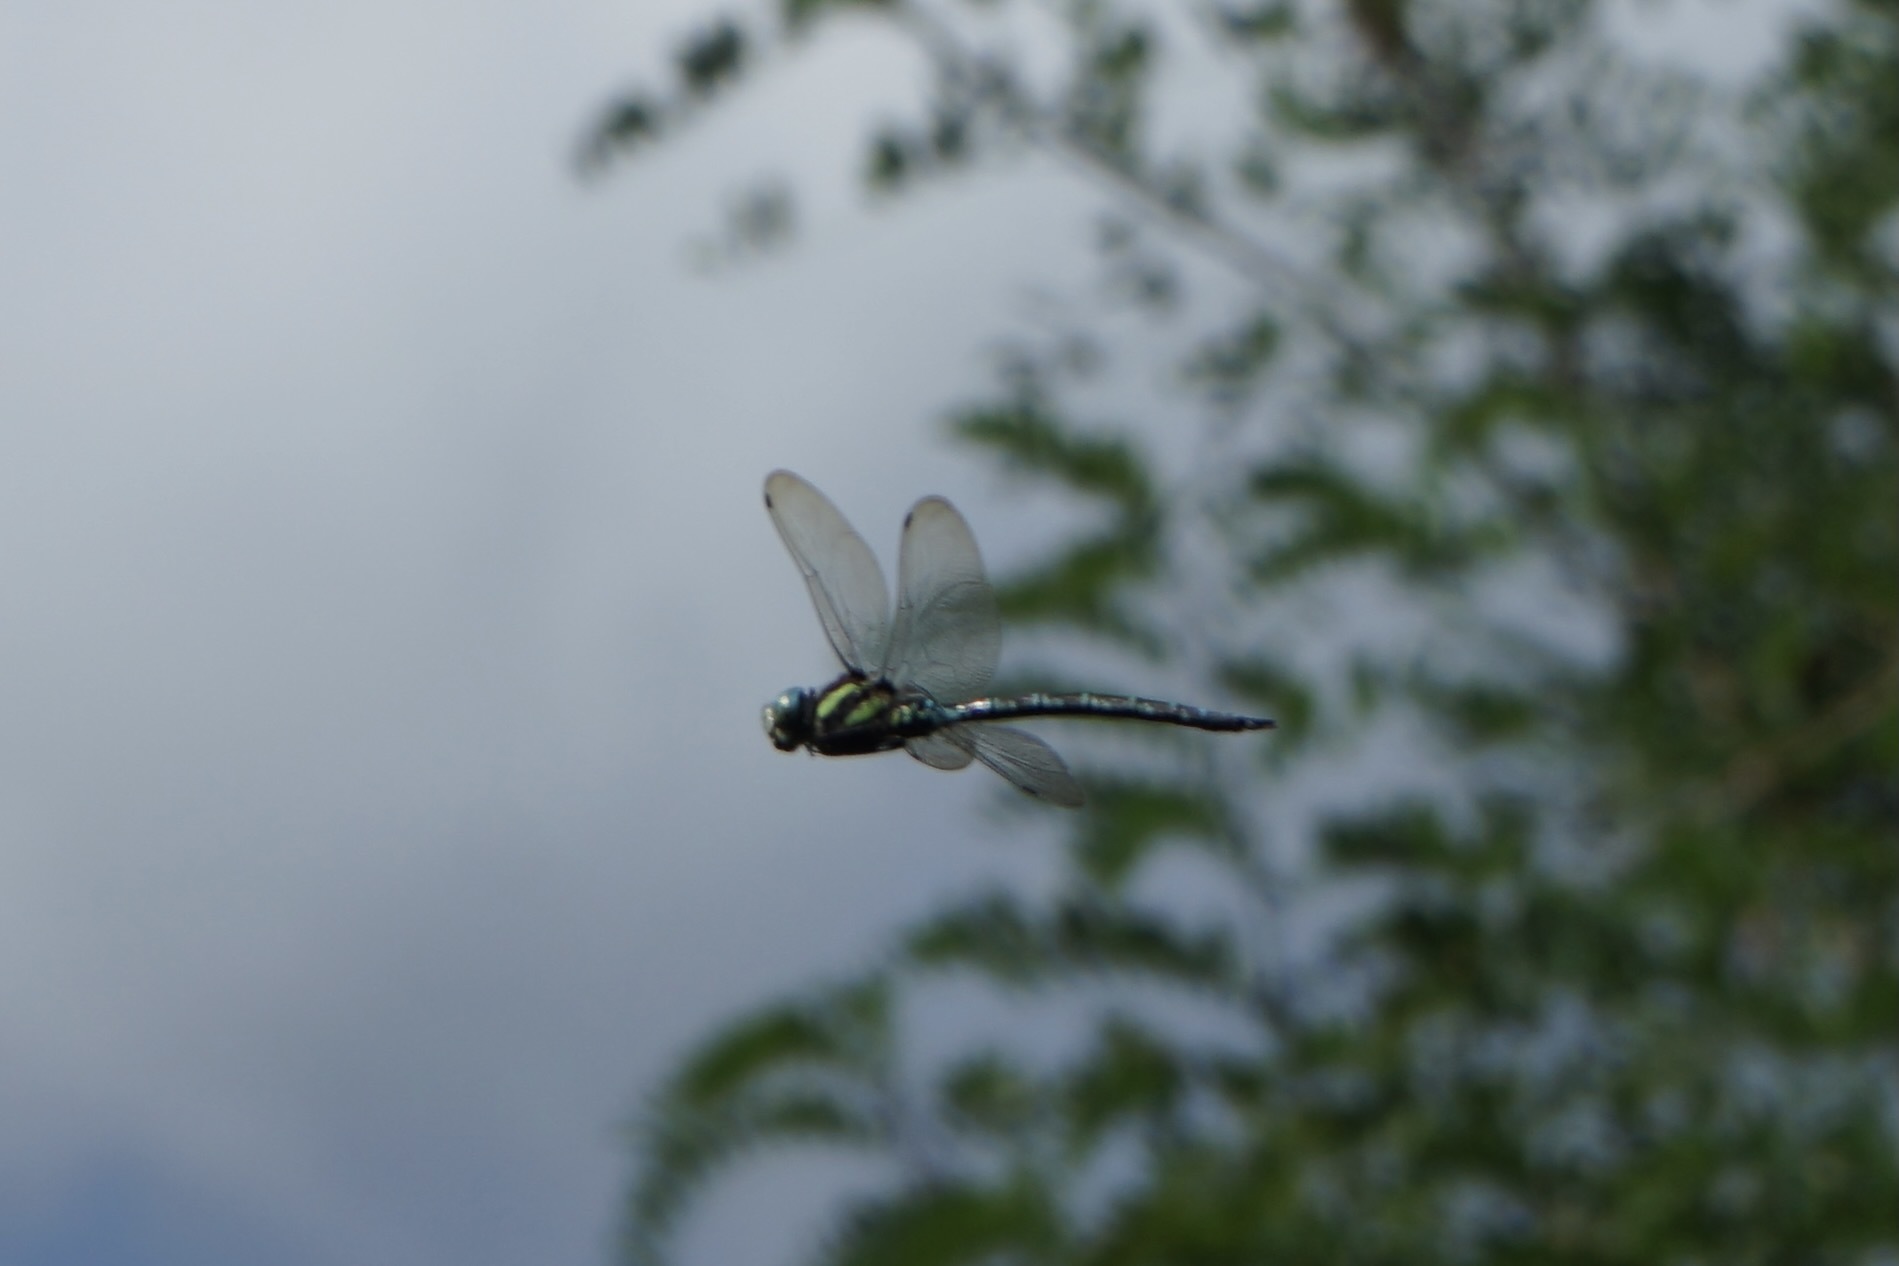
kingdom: Animalia
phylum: Arthropoda
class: Insecta
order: Odonata
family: Aeshnidae
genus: Aeshna
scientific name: Aeshna crenata
